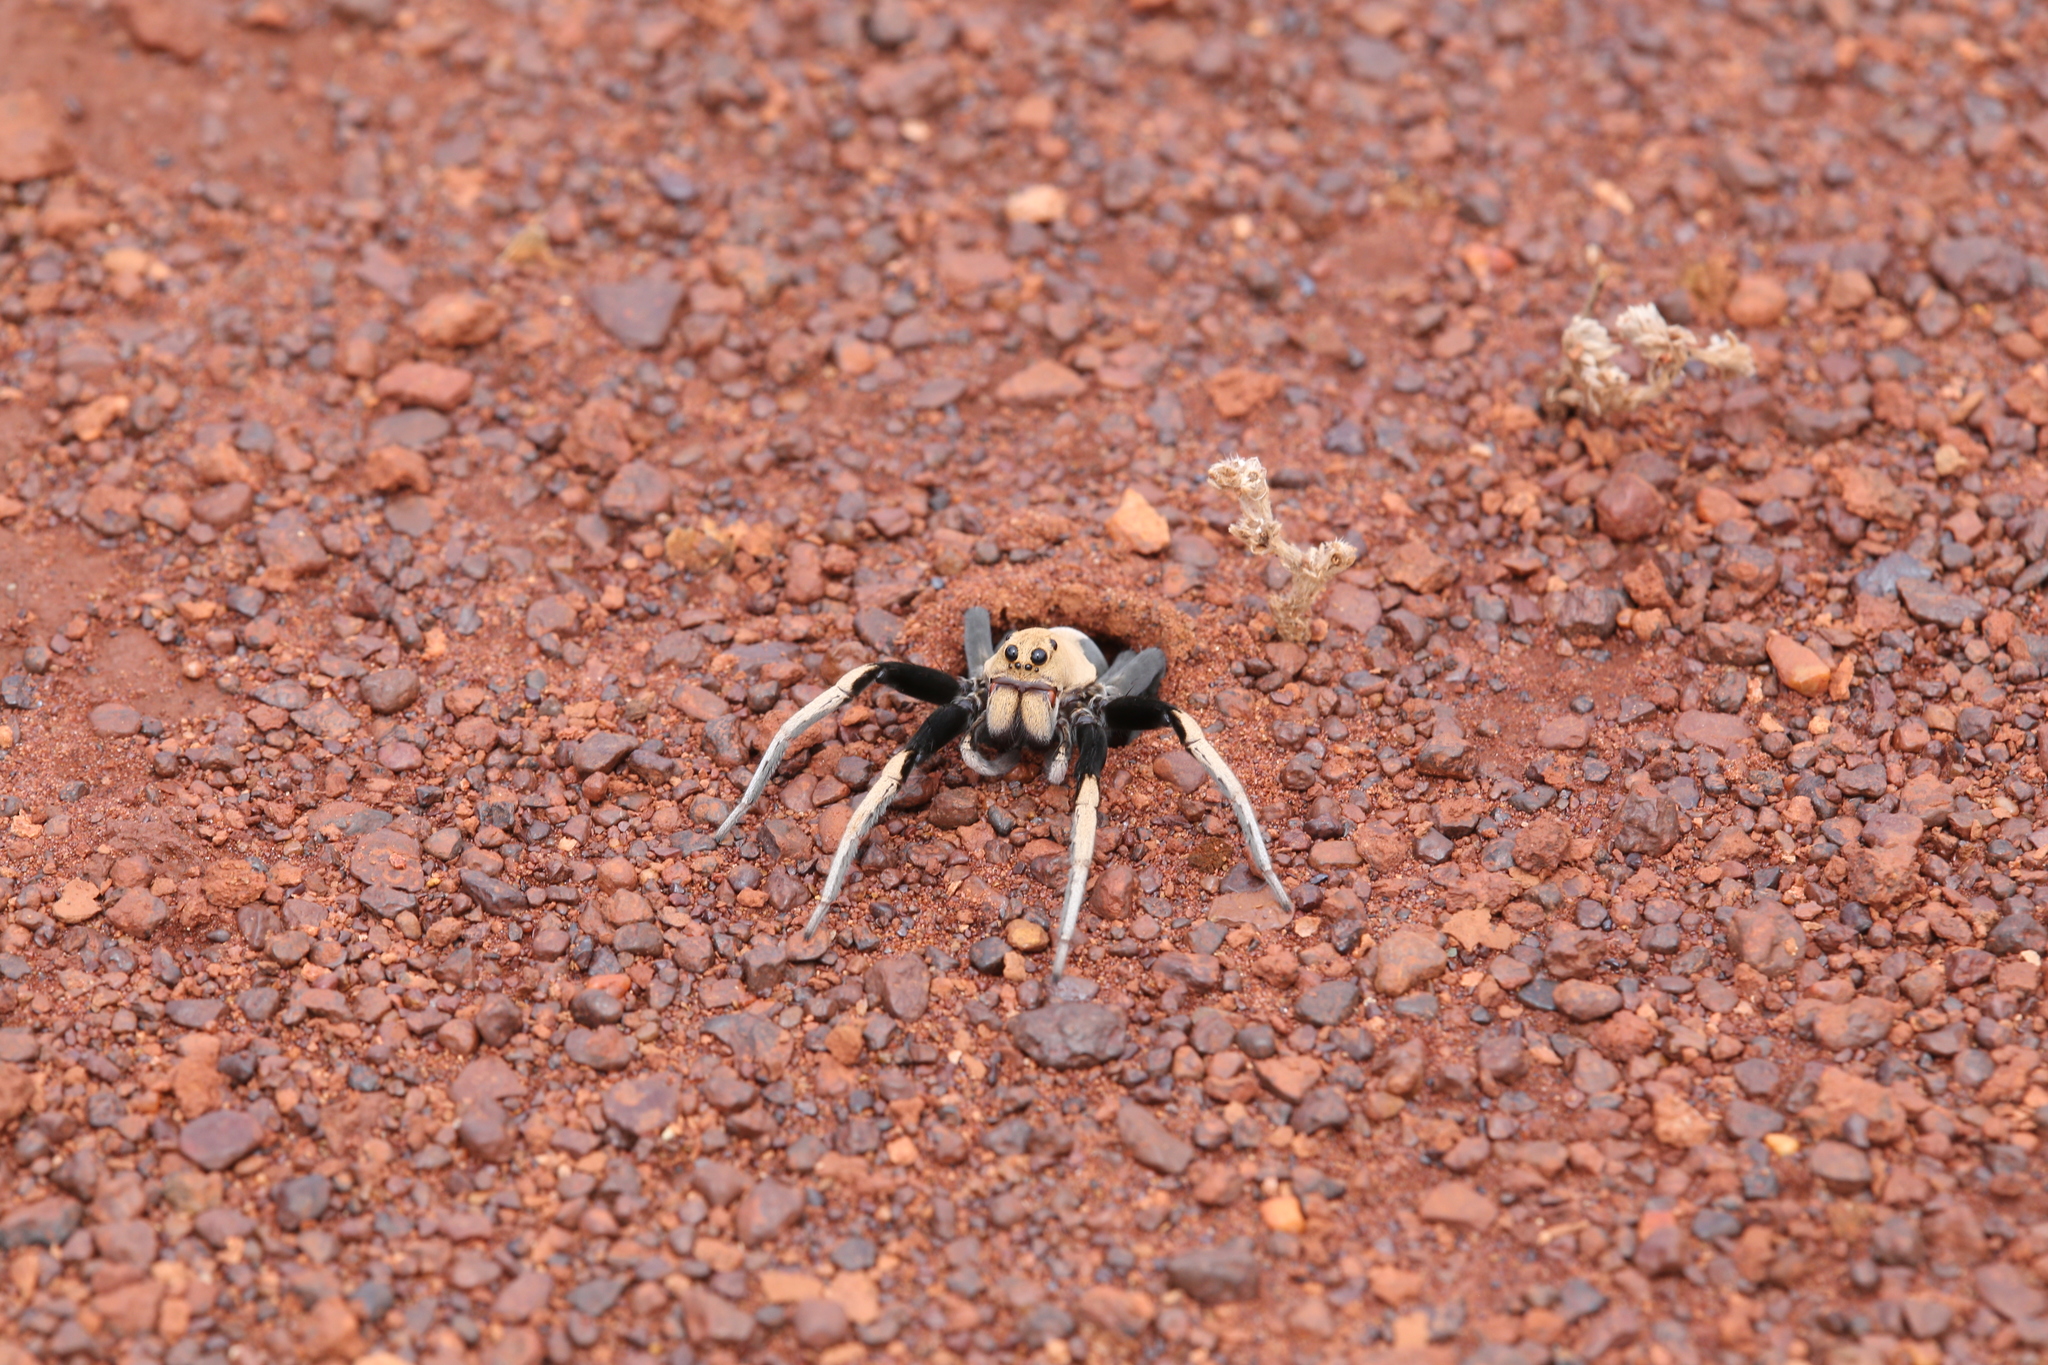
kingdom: Animalia
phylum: Arthropoda
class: Arachnida
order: Araneae
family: Lycosidae
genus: Hoggicosa
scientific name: Hoggicosa bicolor
